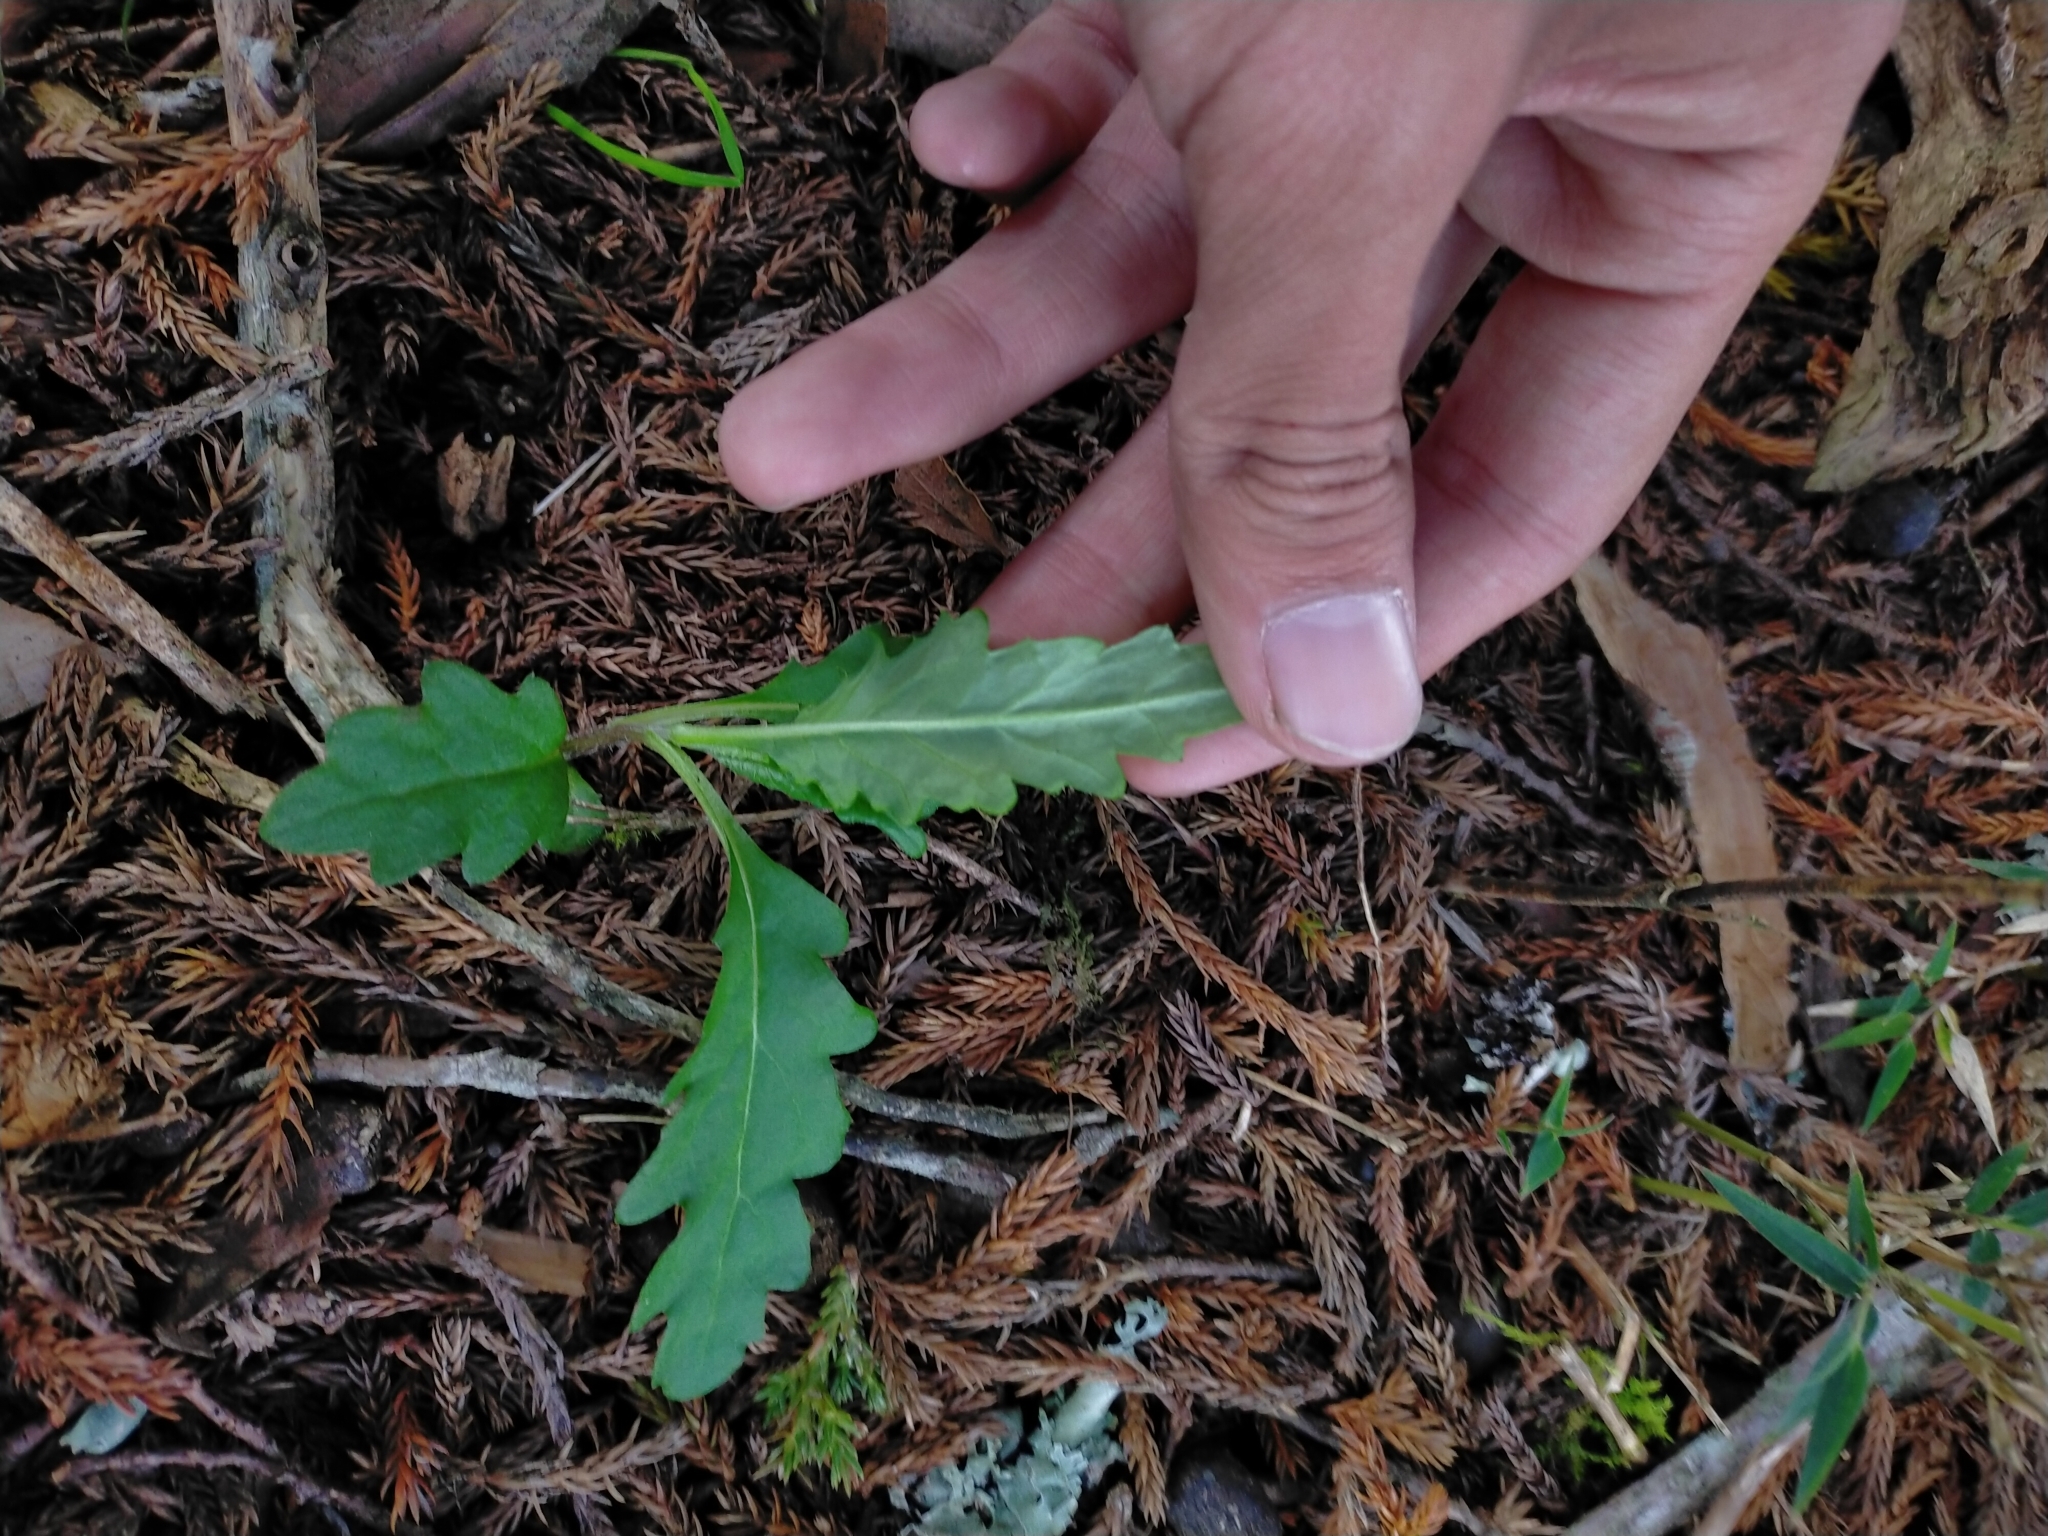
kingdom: Plantae
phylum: Tracheophyta
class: Magnoliopsida
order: Asterales
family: Asteraceae
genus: Senecio
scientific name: Senecio nemorensis
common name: Alpine ragwort
